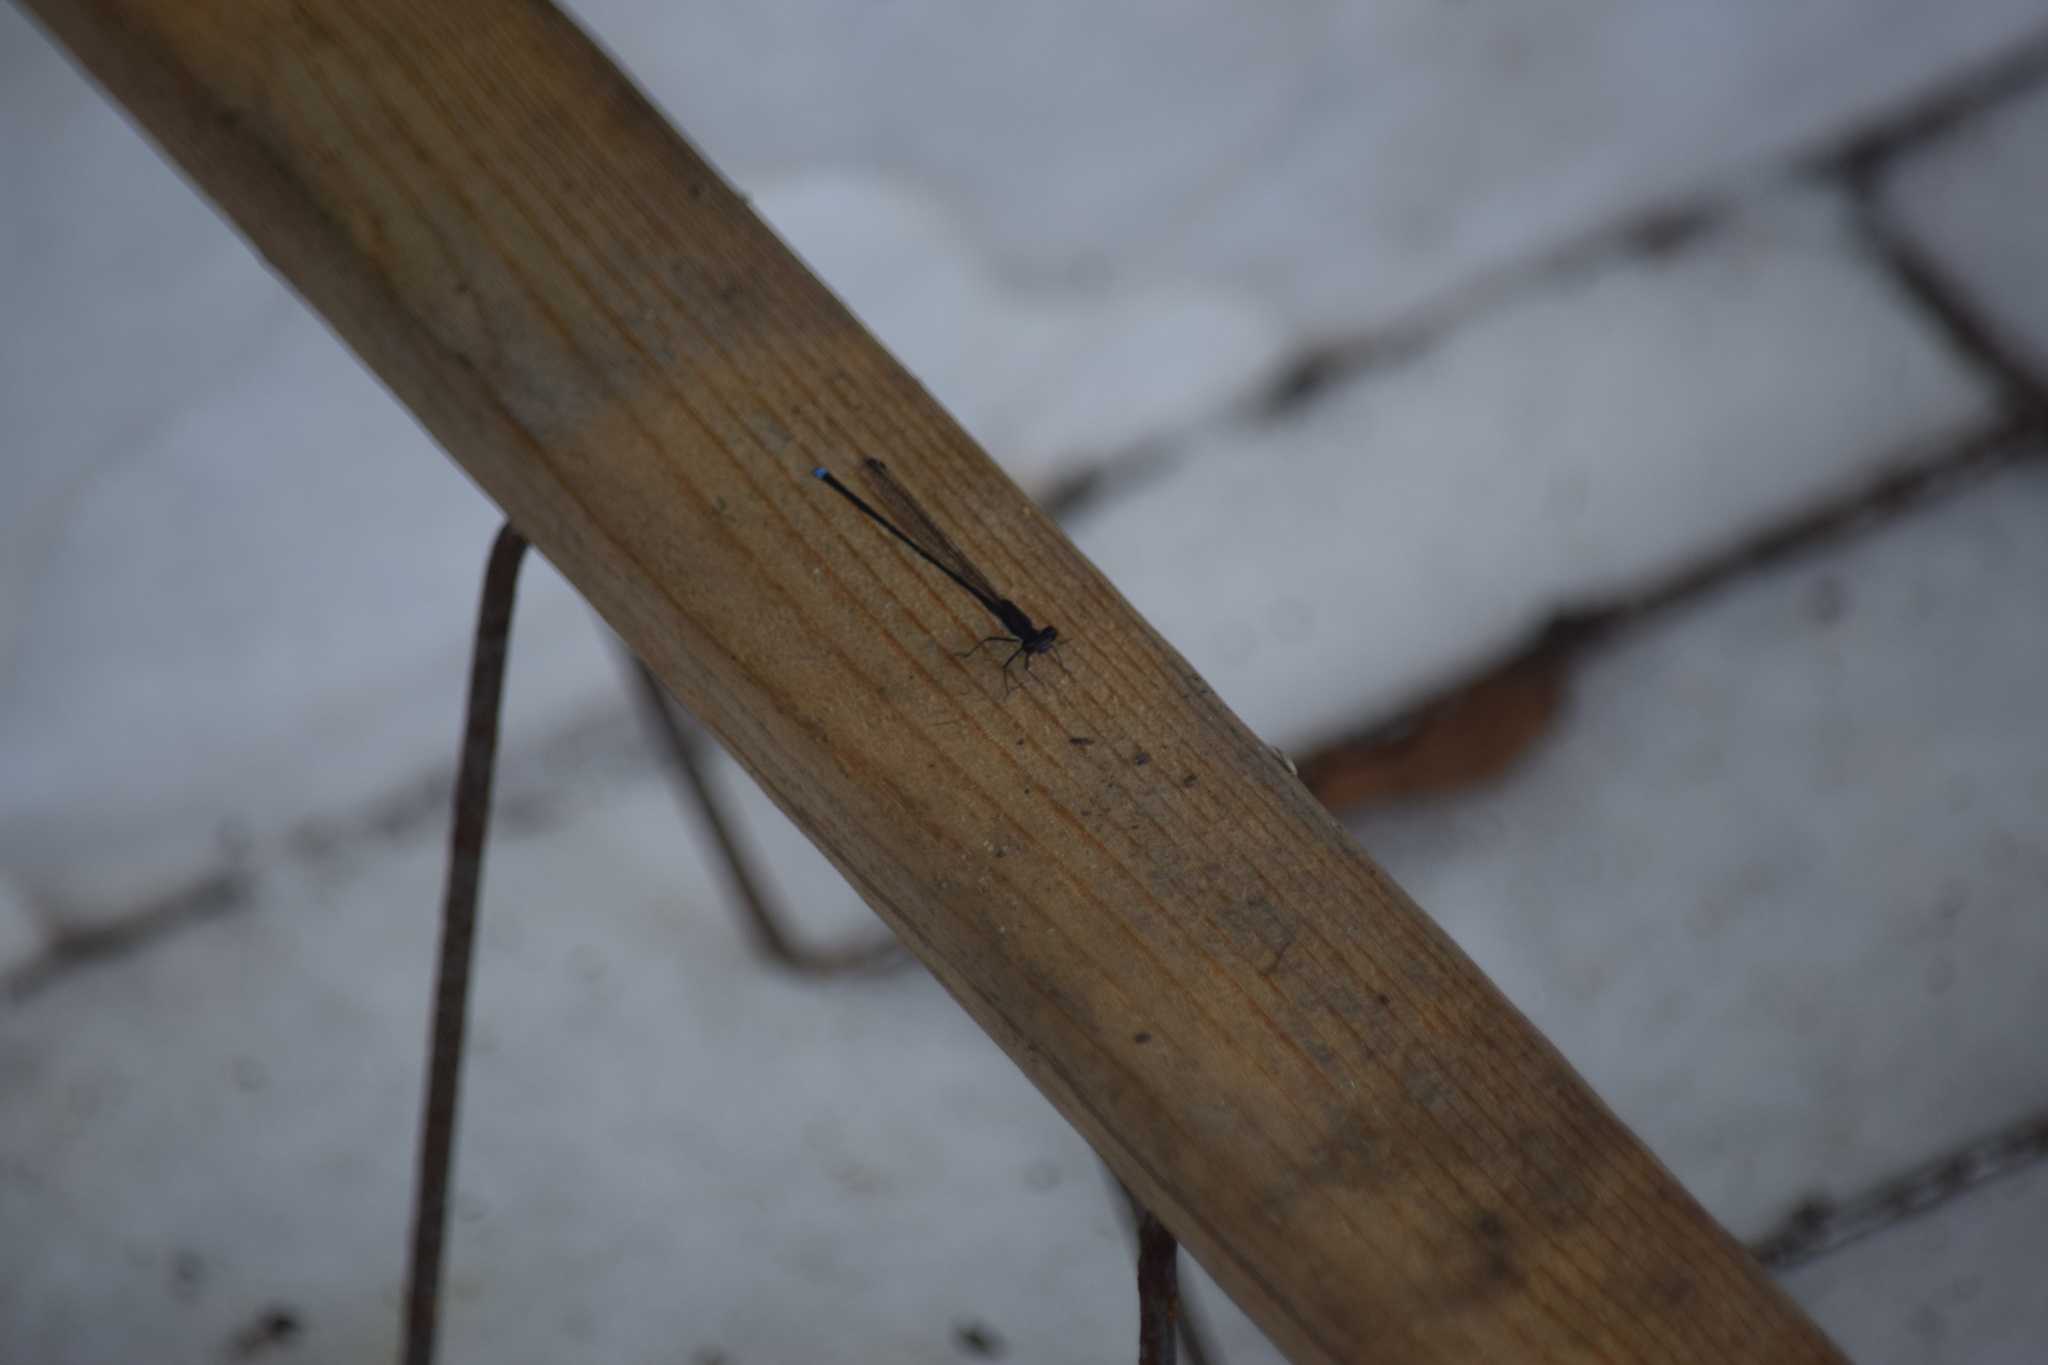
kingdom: Animalia
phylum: Arthropoda
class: Insecta
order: Odonata
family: Coenagrionidae
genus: Argia
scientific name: Argia tibialis
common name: Blue-tipped dancer
